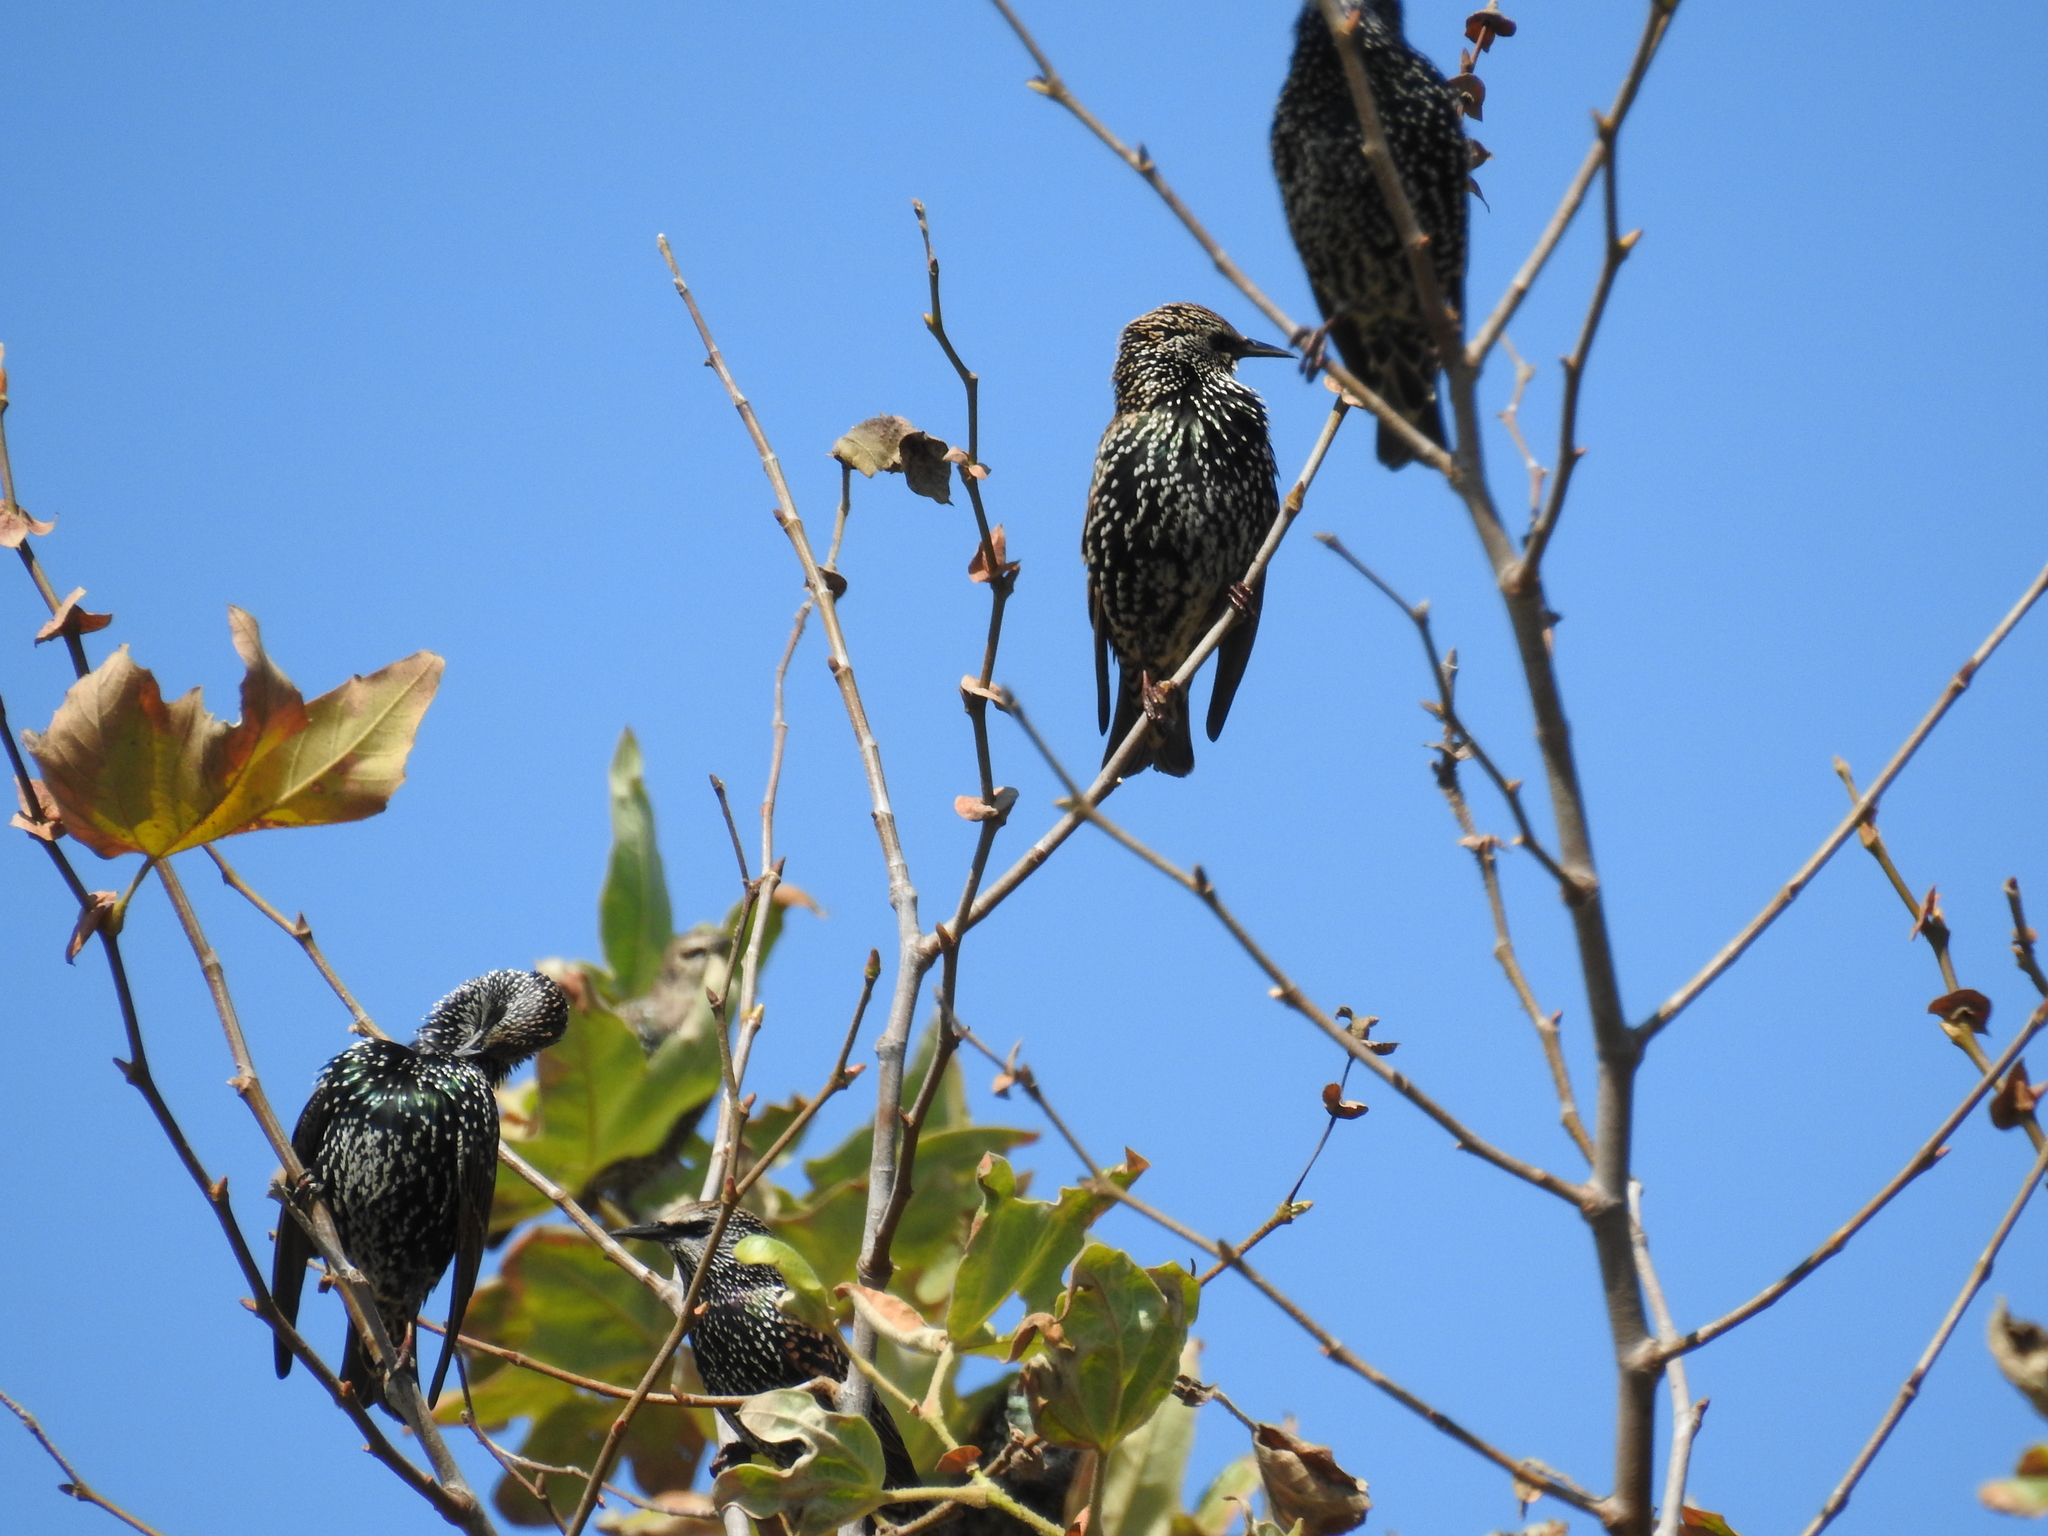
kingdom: Animalia
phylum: Chordata
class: Aves
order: Passeriformes
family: Sturnidae
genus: Sturnus
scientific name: Sturnus vulgaris
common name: Common starling
